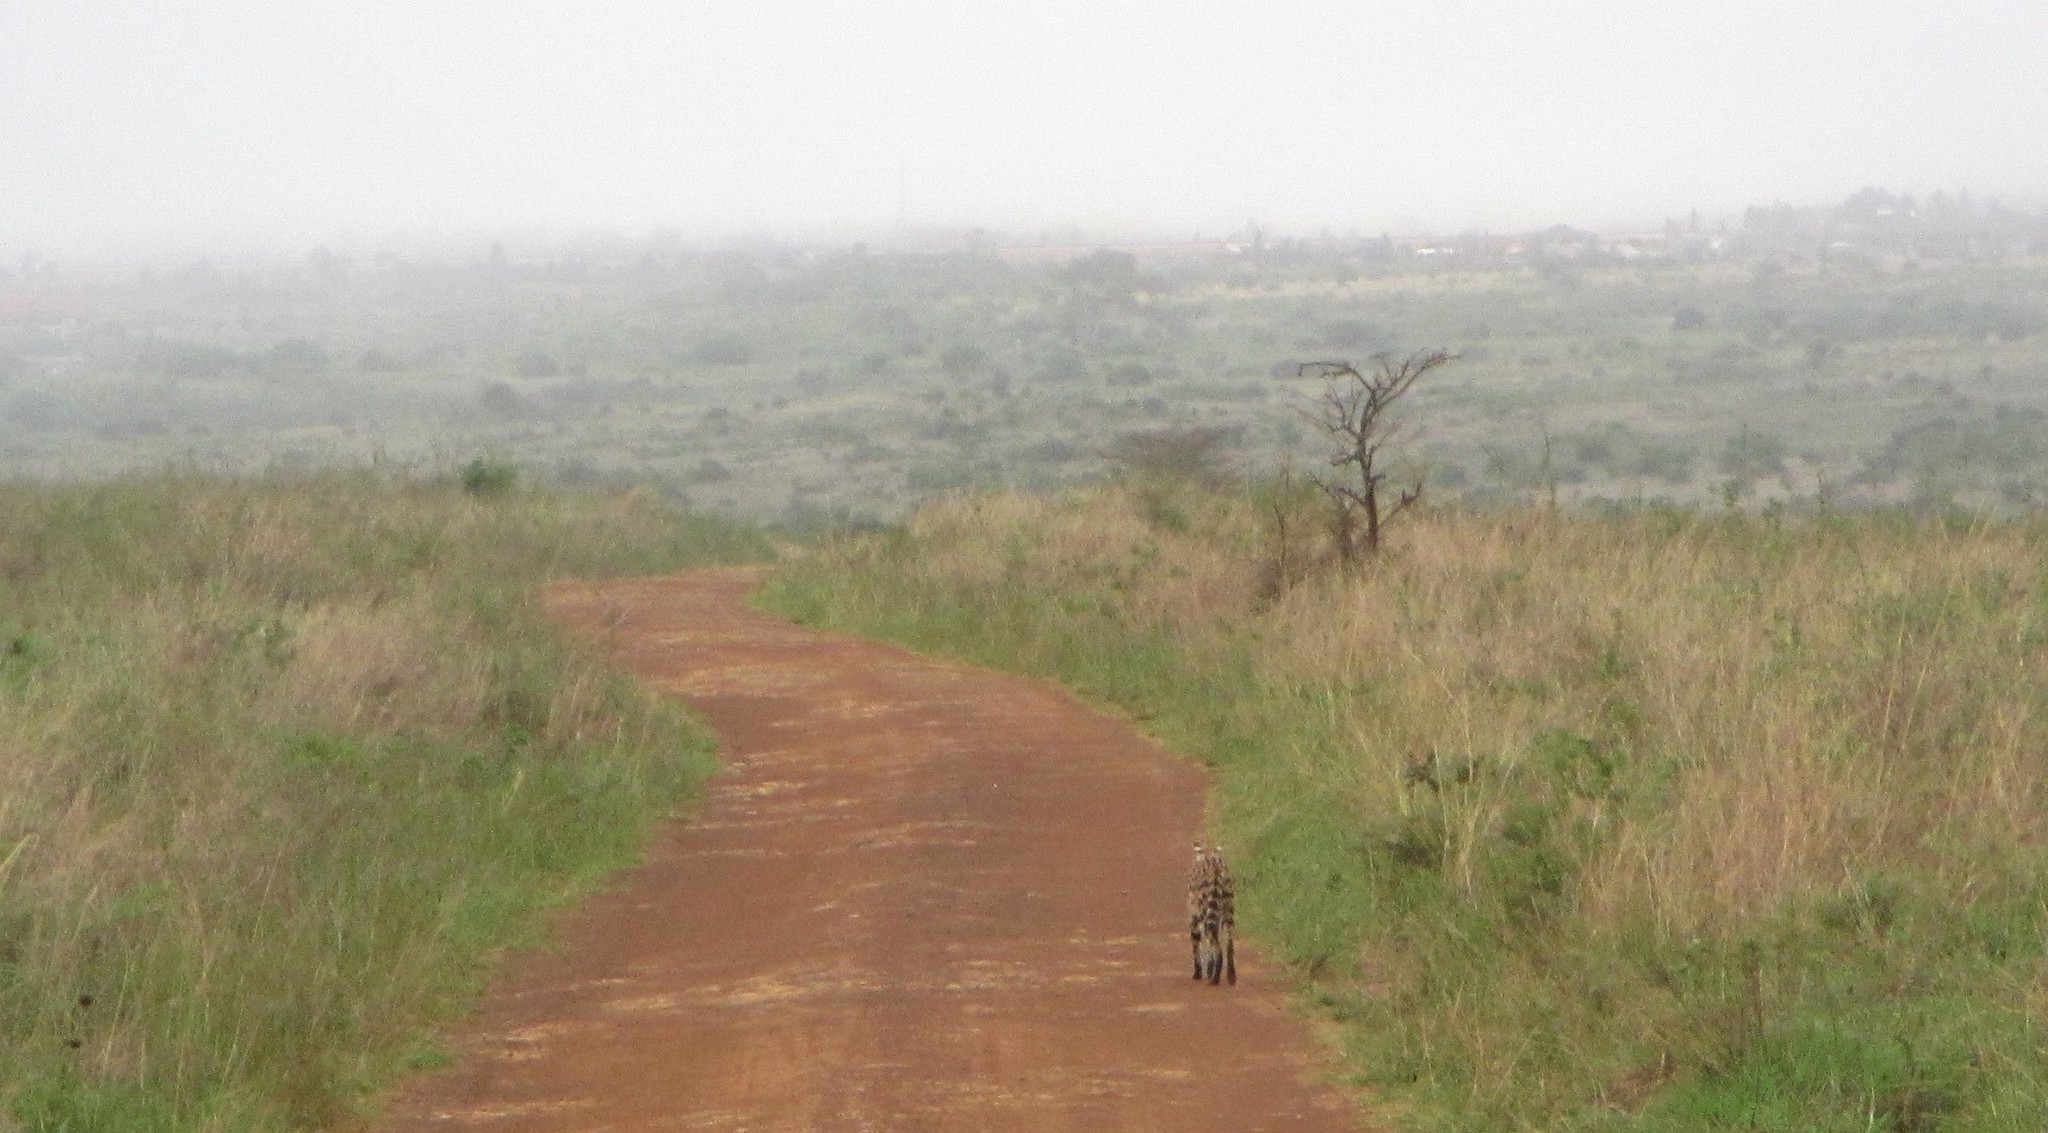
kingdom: Animalia
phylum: Chordata
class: Mammalia
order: Carnivora
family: Felidae
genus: Leptailurus
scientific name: Leptailurus serval
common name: Serval
